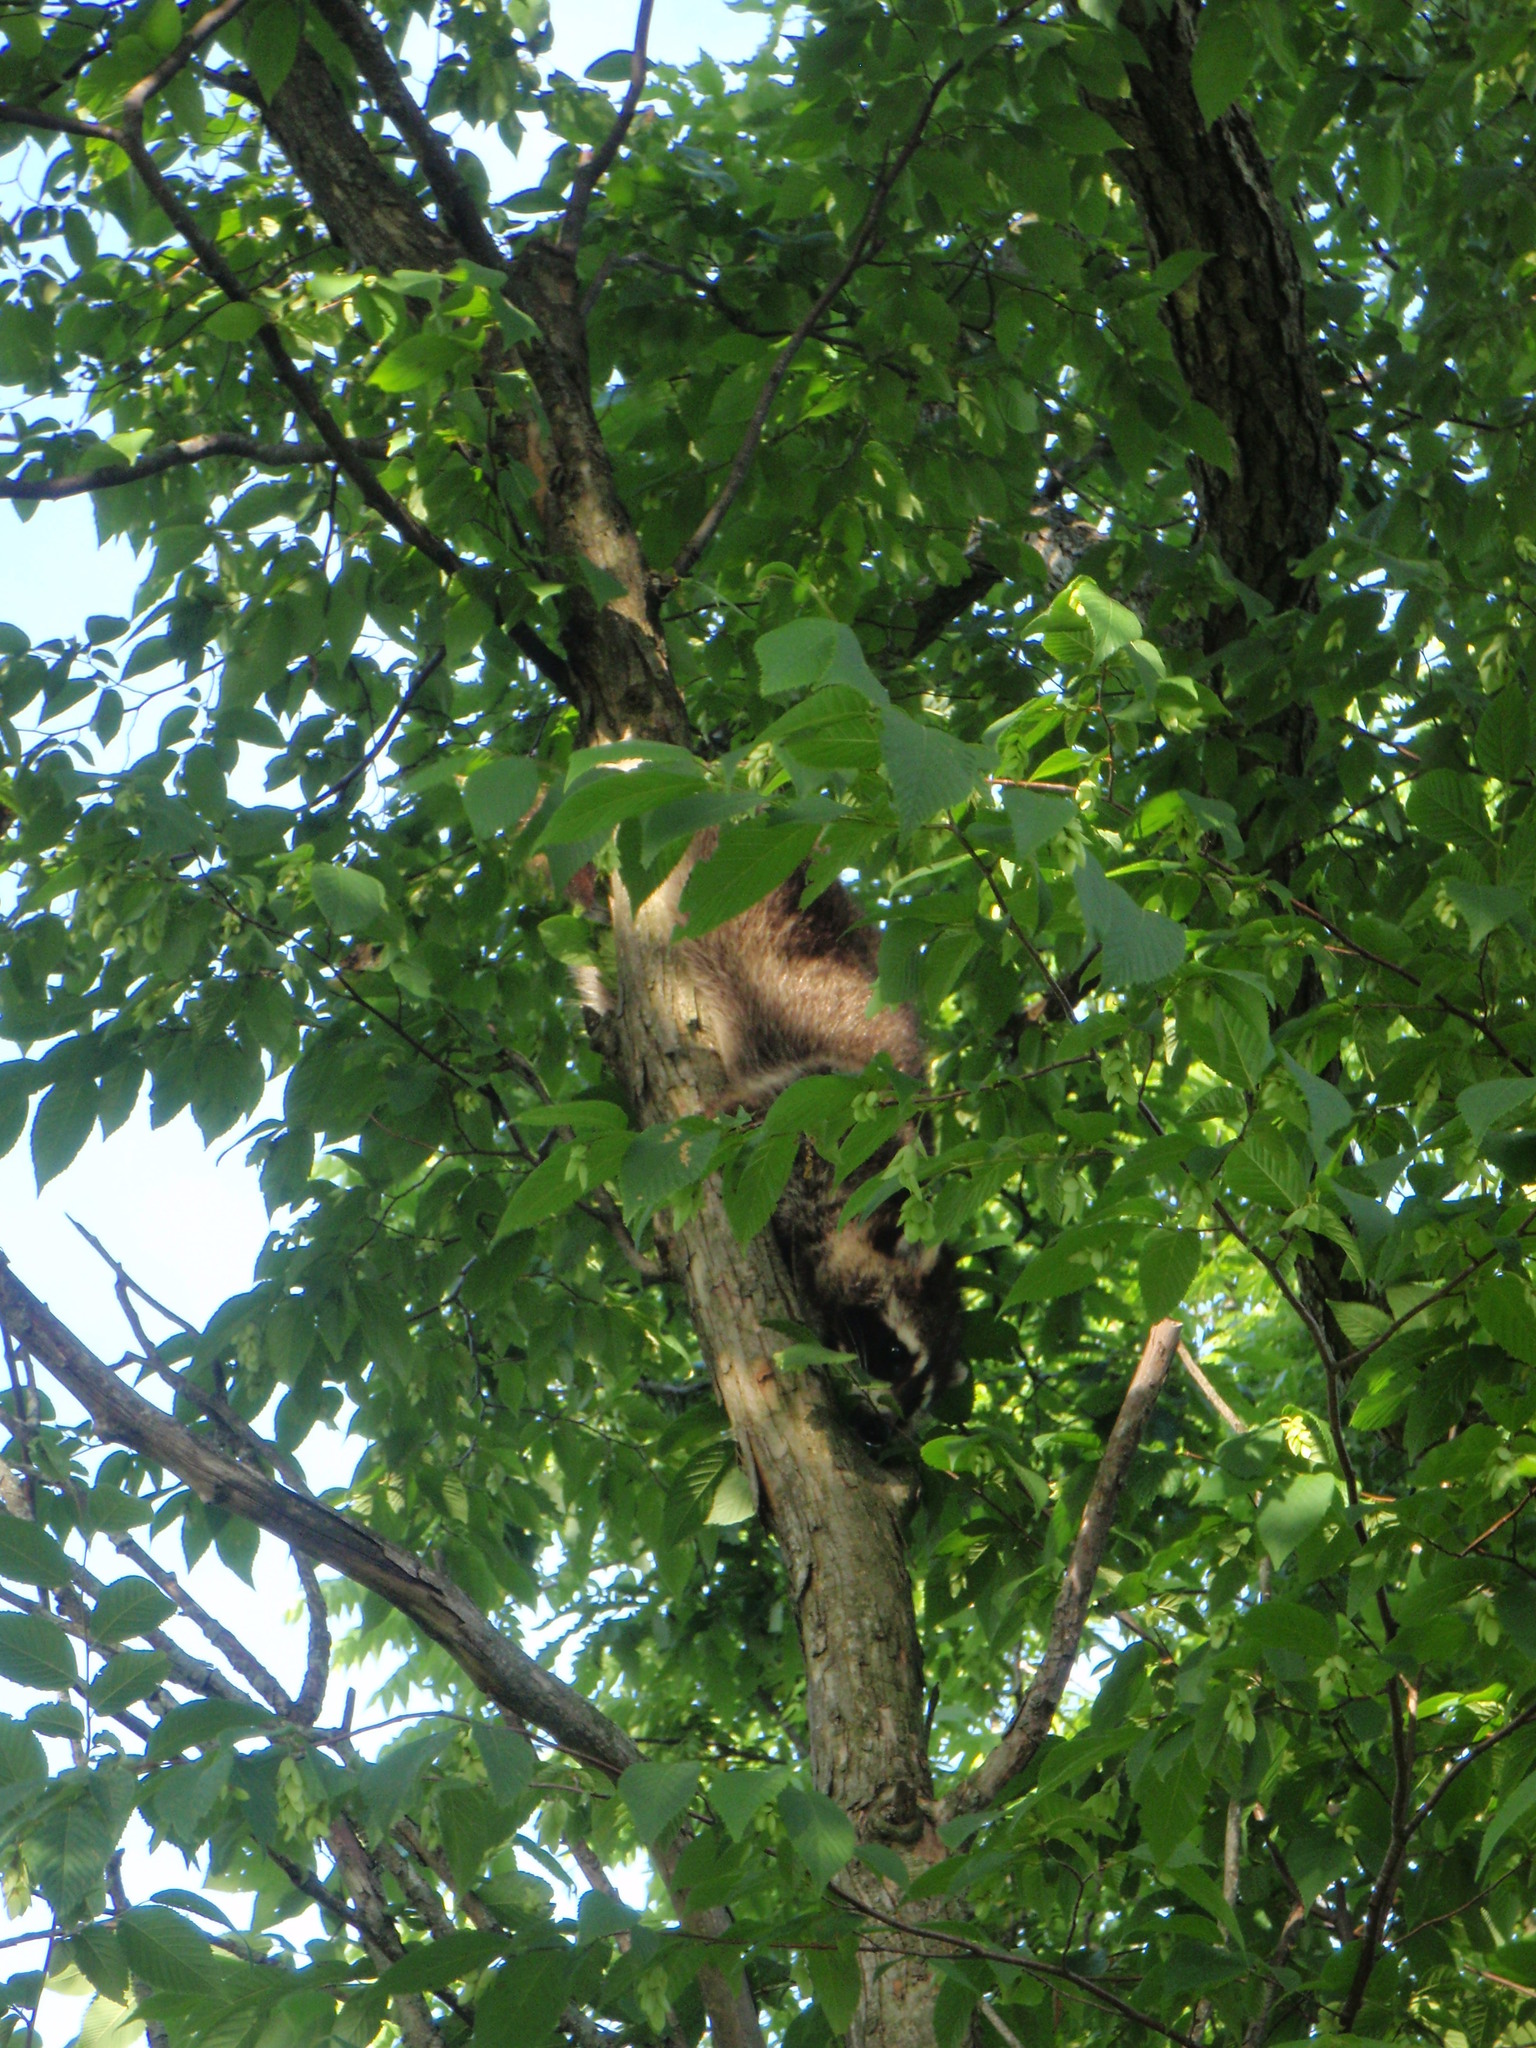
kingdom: Animalia
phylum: Chordata
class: Mammalia
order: Carnivora
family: Procyonidae
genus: Procyon
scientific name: Procyon lotor
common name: Raccoon
